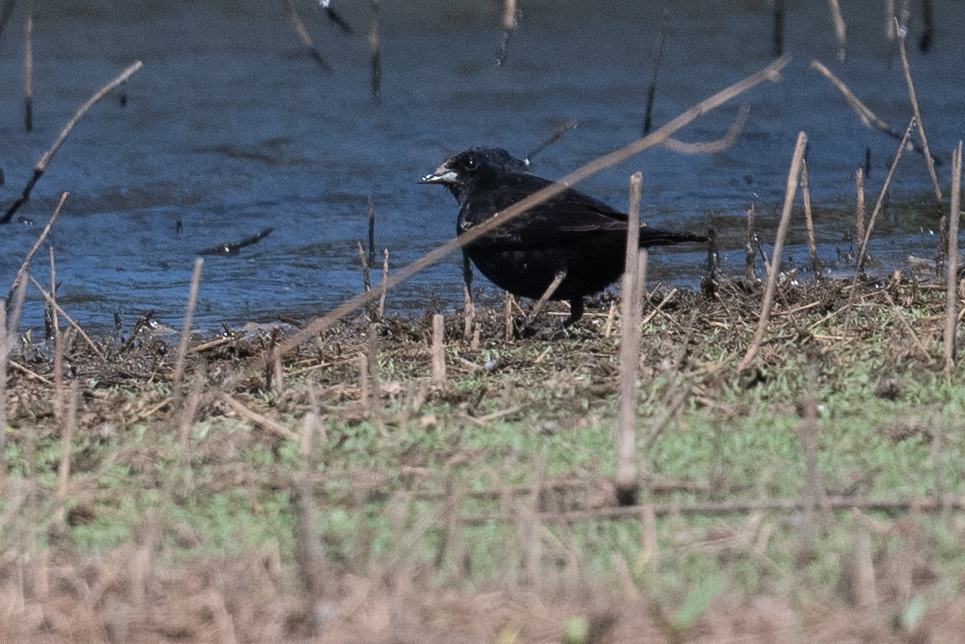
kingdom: Animalia
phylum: Chordata
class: Aves
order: Passeriformes
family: Icteridae
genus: Agelaius
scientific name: Agelaius phoeniceus
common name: Red-winged blackbird
